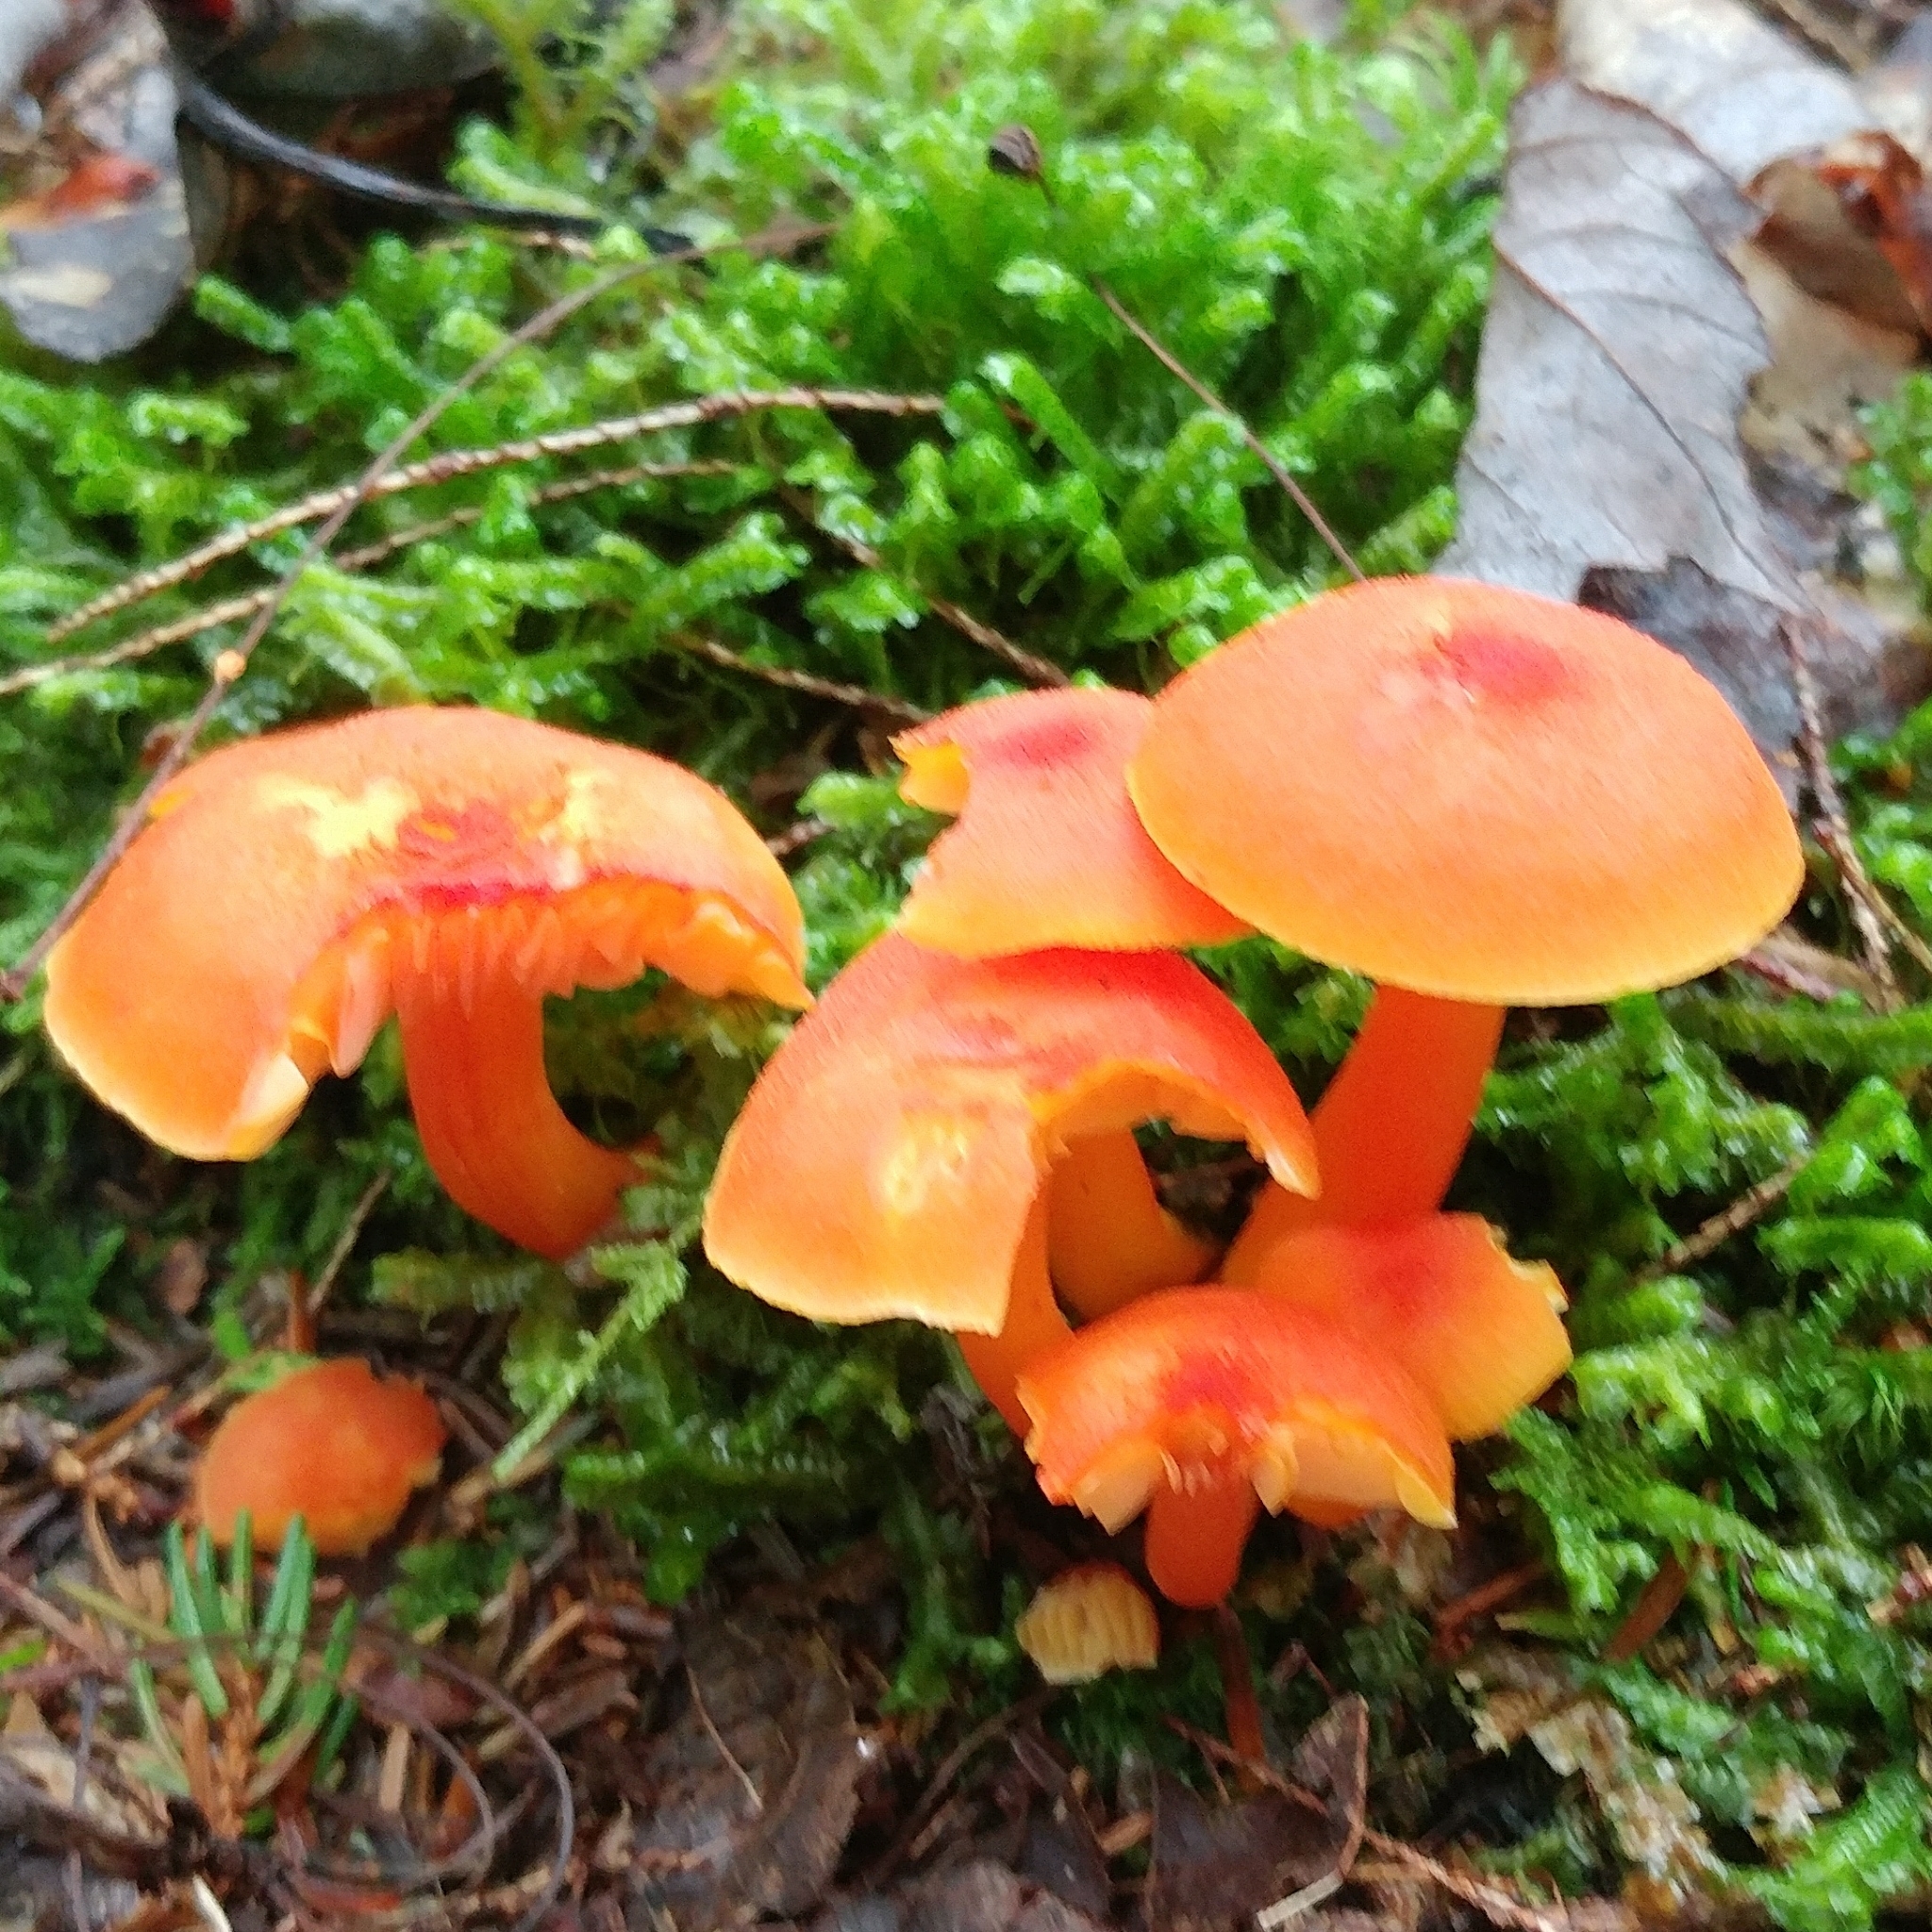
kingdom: Fungi
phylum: Basidiomycota
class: Agaricomycetes
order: Agaricales
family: Hygrophoraceae
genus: Hygrocybe
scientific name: Hygrocybe coccinea
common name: Scarlet hood
